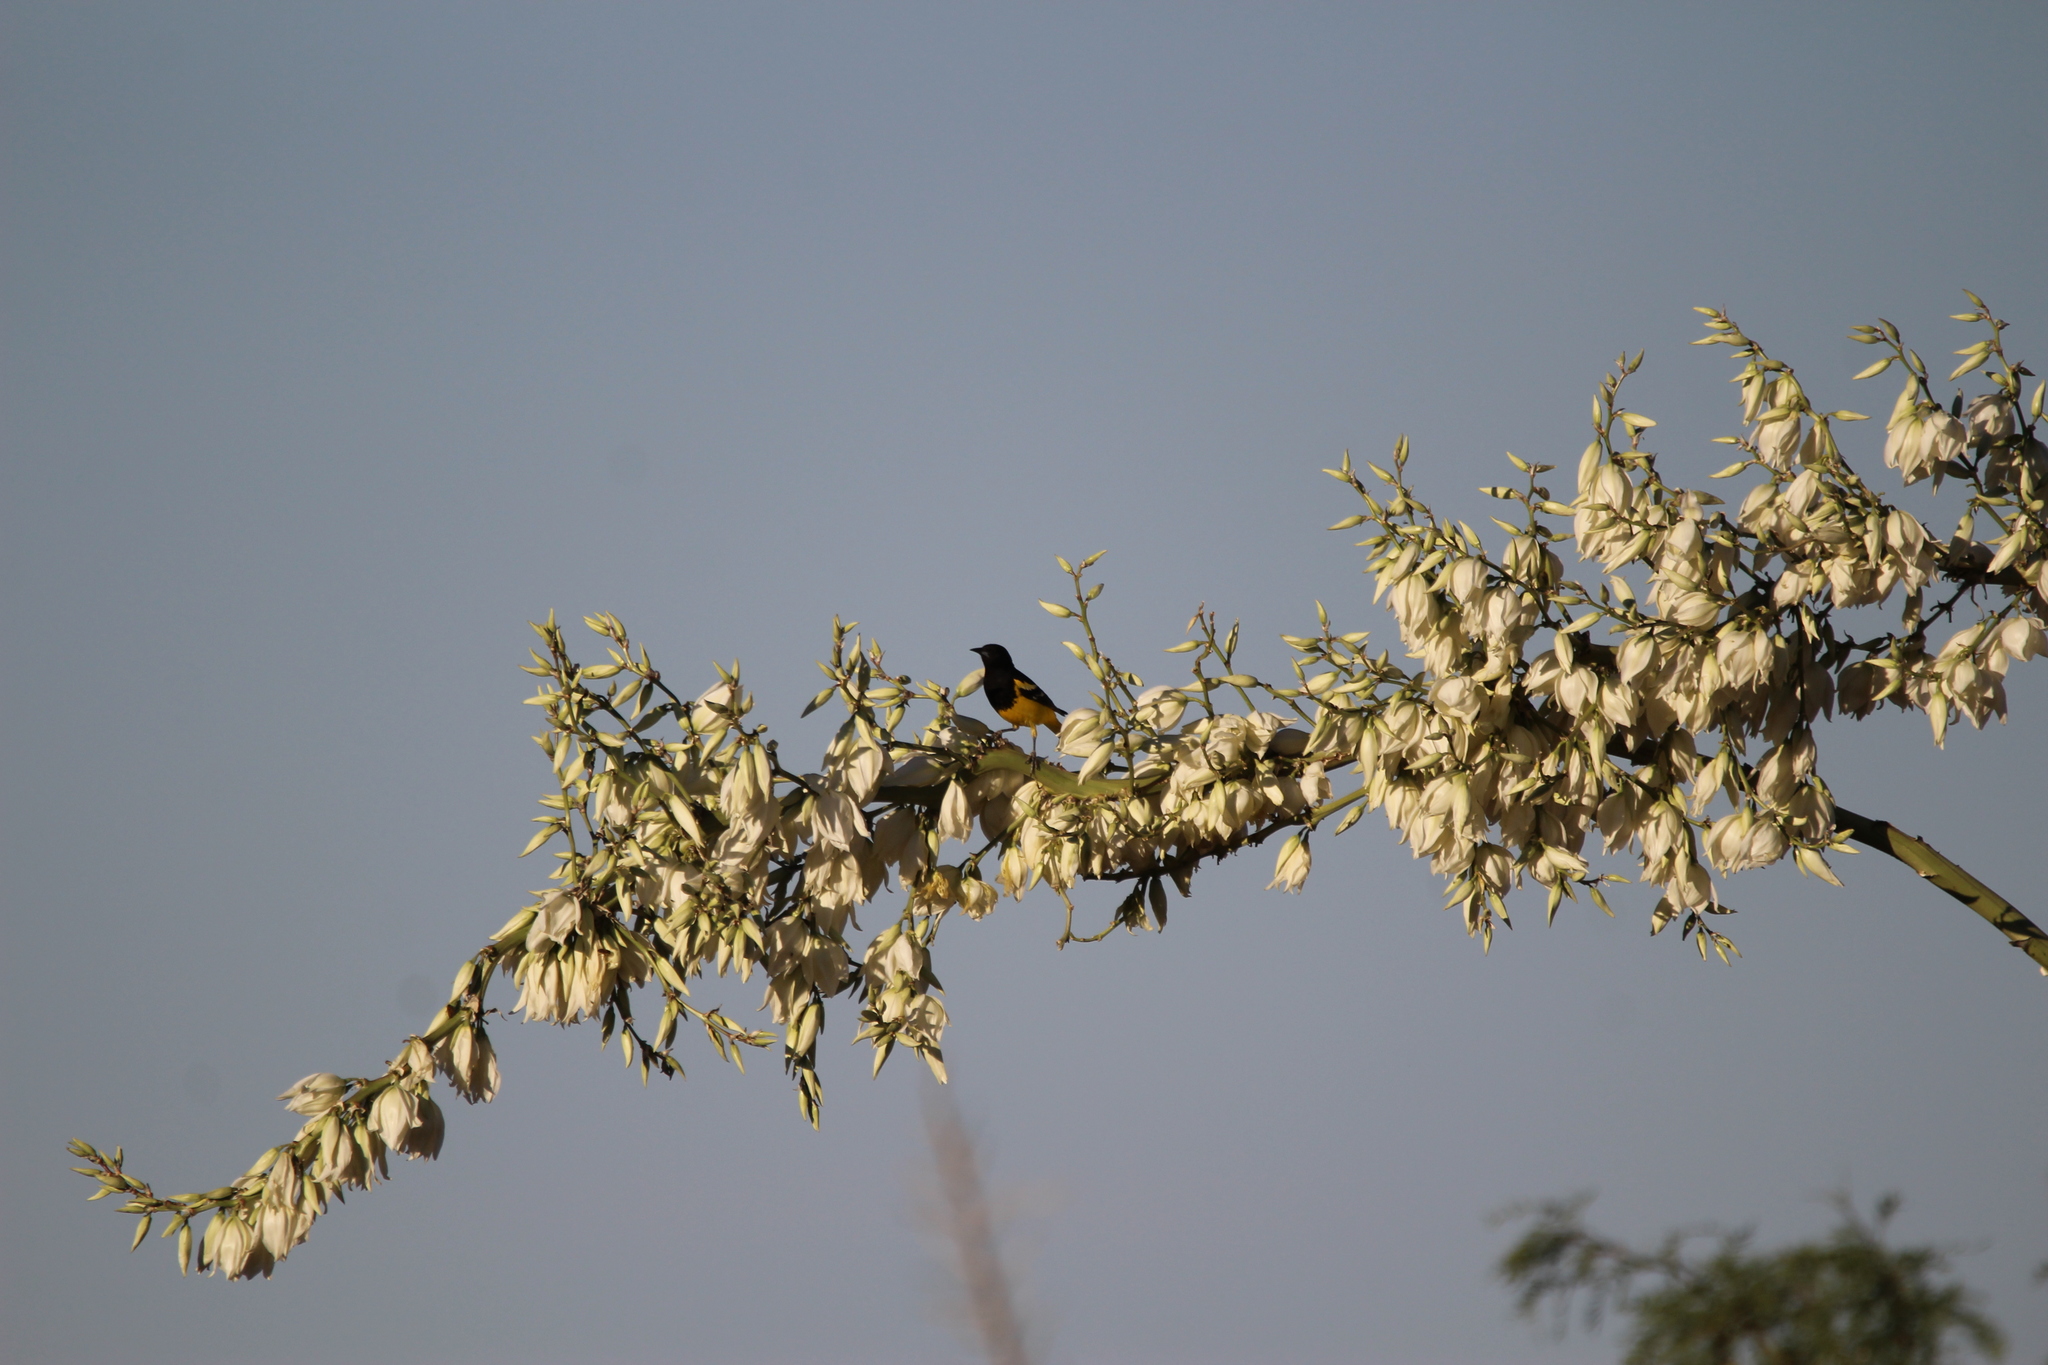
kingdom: Animalia
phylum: Chordata
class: Aves
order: Passeriformes
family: Icteridae
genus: Icterus
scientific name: Icterus parisorum
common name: Scott's oriole
